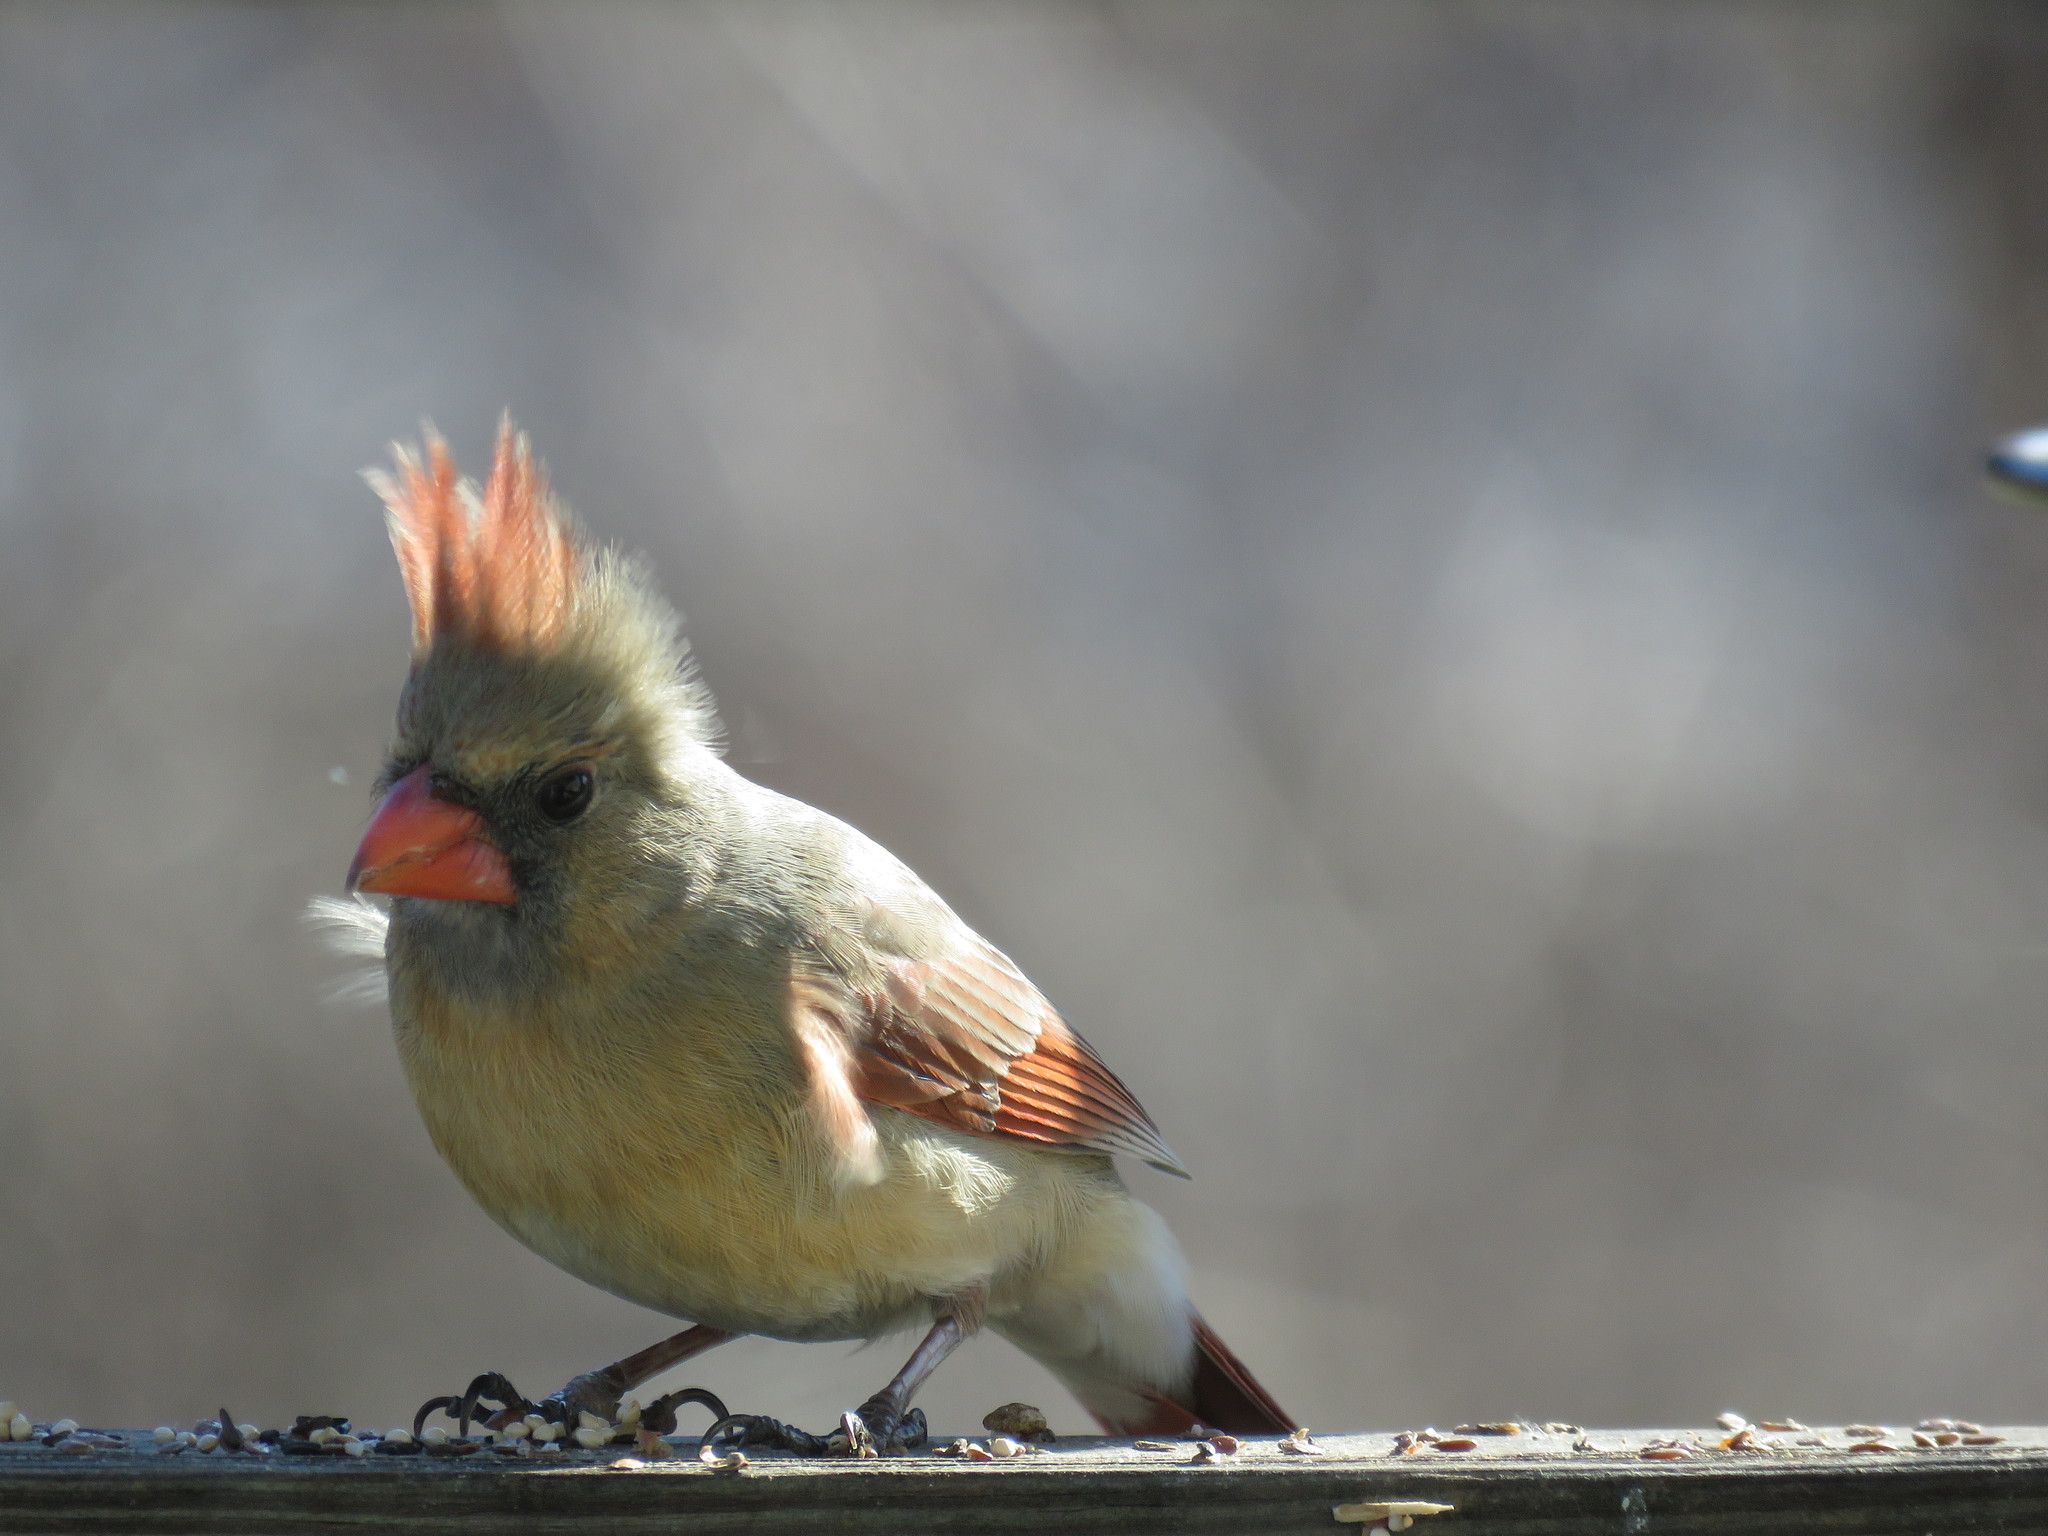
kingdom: Animalia
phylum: Chordata
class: Aves
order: Passeriformes
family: Cardinalidae
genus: Cardinalis
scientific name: Cardinalis cardinalis
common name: Northern cardinal
